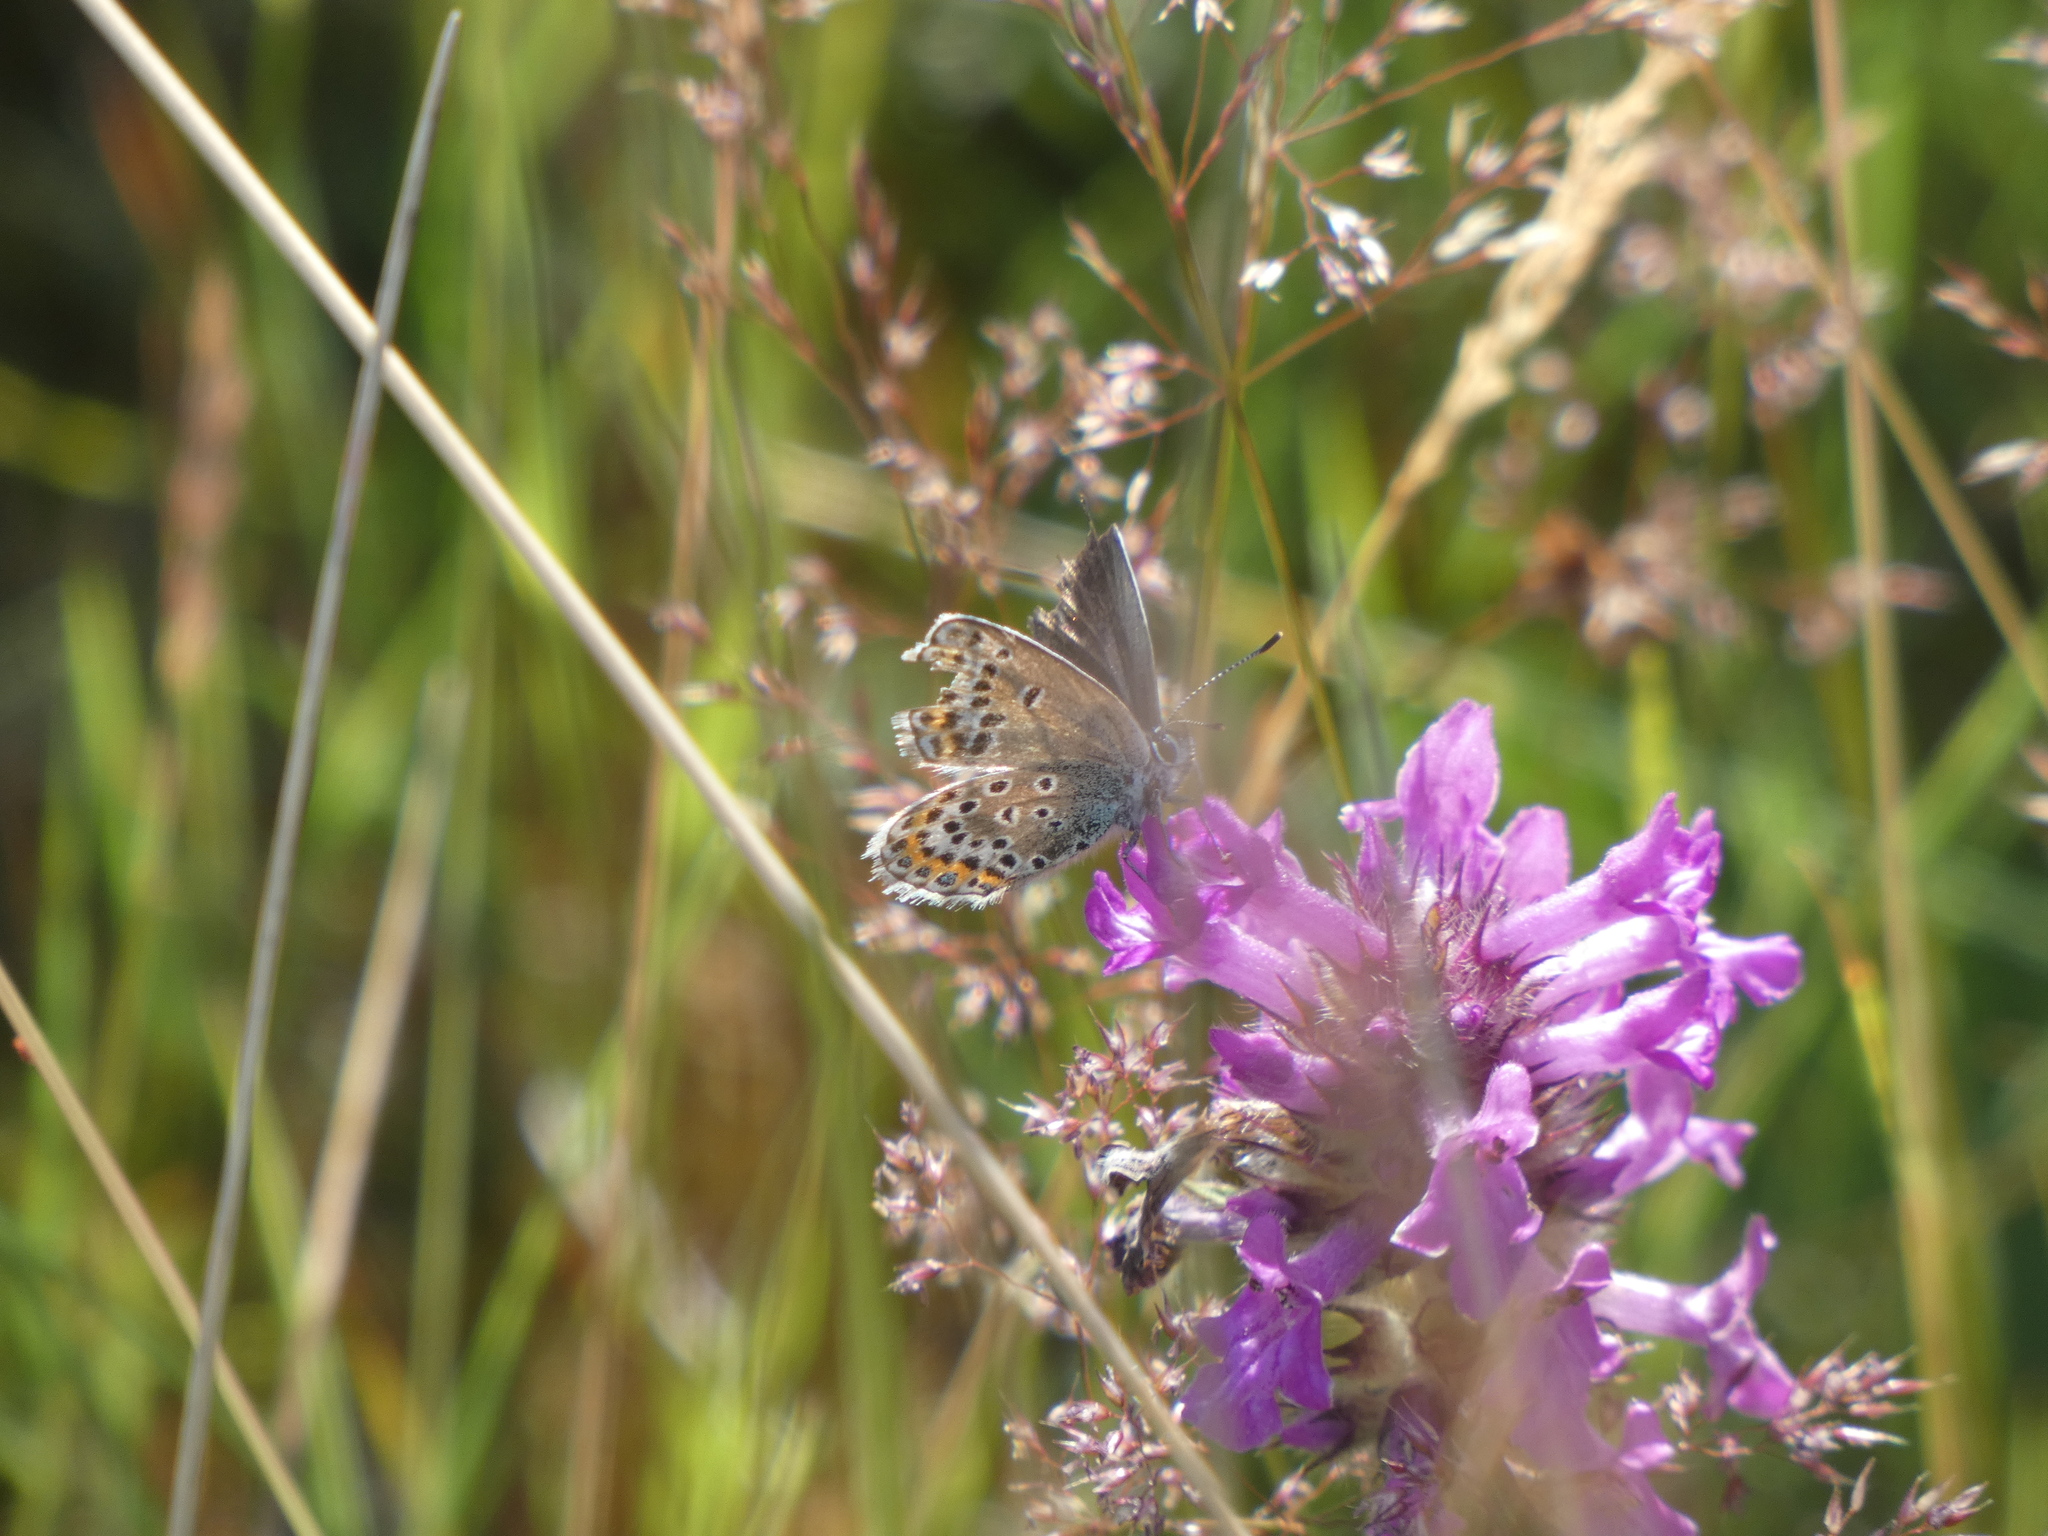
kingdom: Animalia
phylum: Arthropoda
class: Insecta
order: Lepidoptera
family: Lycaenidae
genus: Plebejus
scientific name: Plebejus argus
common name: Silver-studded blue
